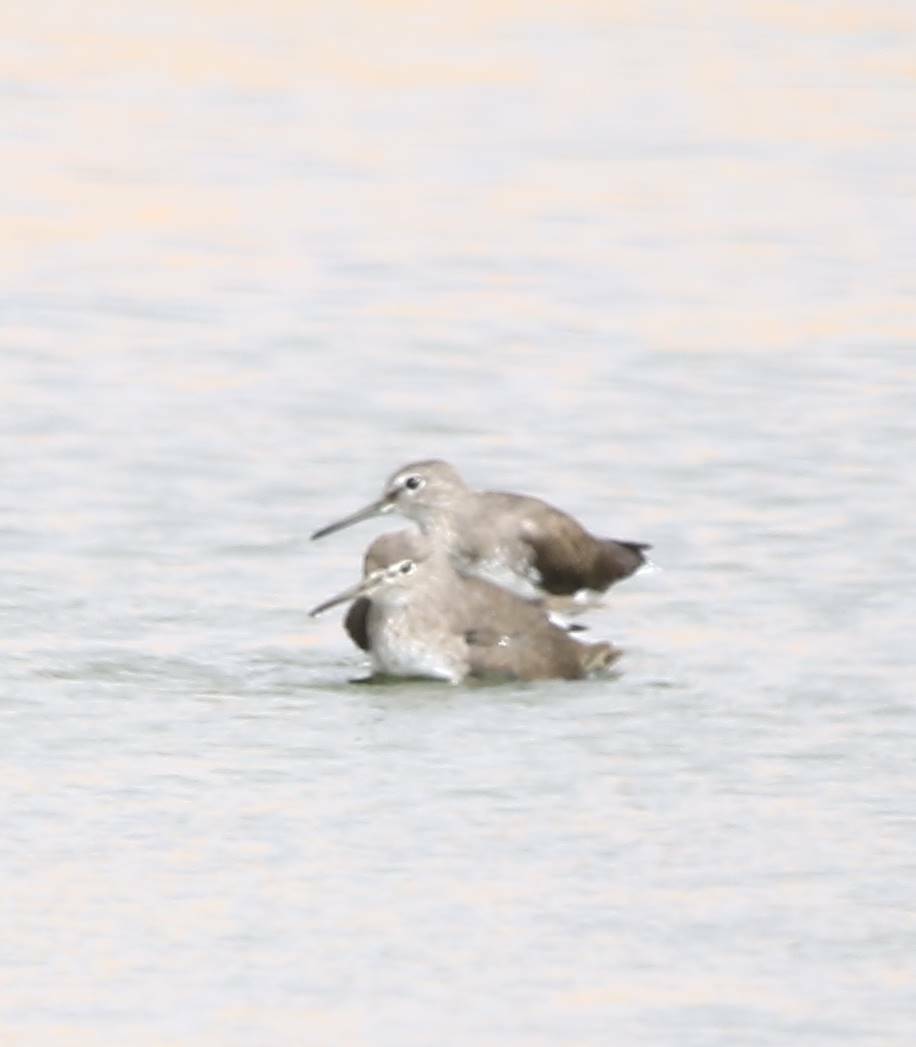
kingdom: Animalia
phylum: Chordata
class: Aves
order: Charadriiformes
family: Scolopacidae
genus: Tringa
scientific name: Tringa ochropus
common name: Green sandpiper
